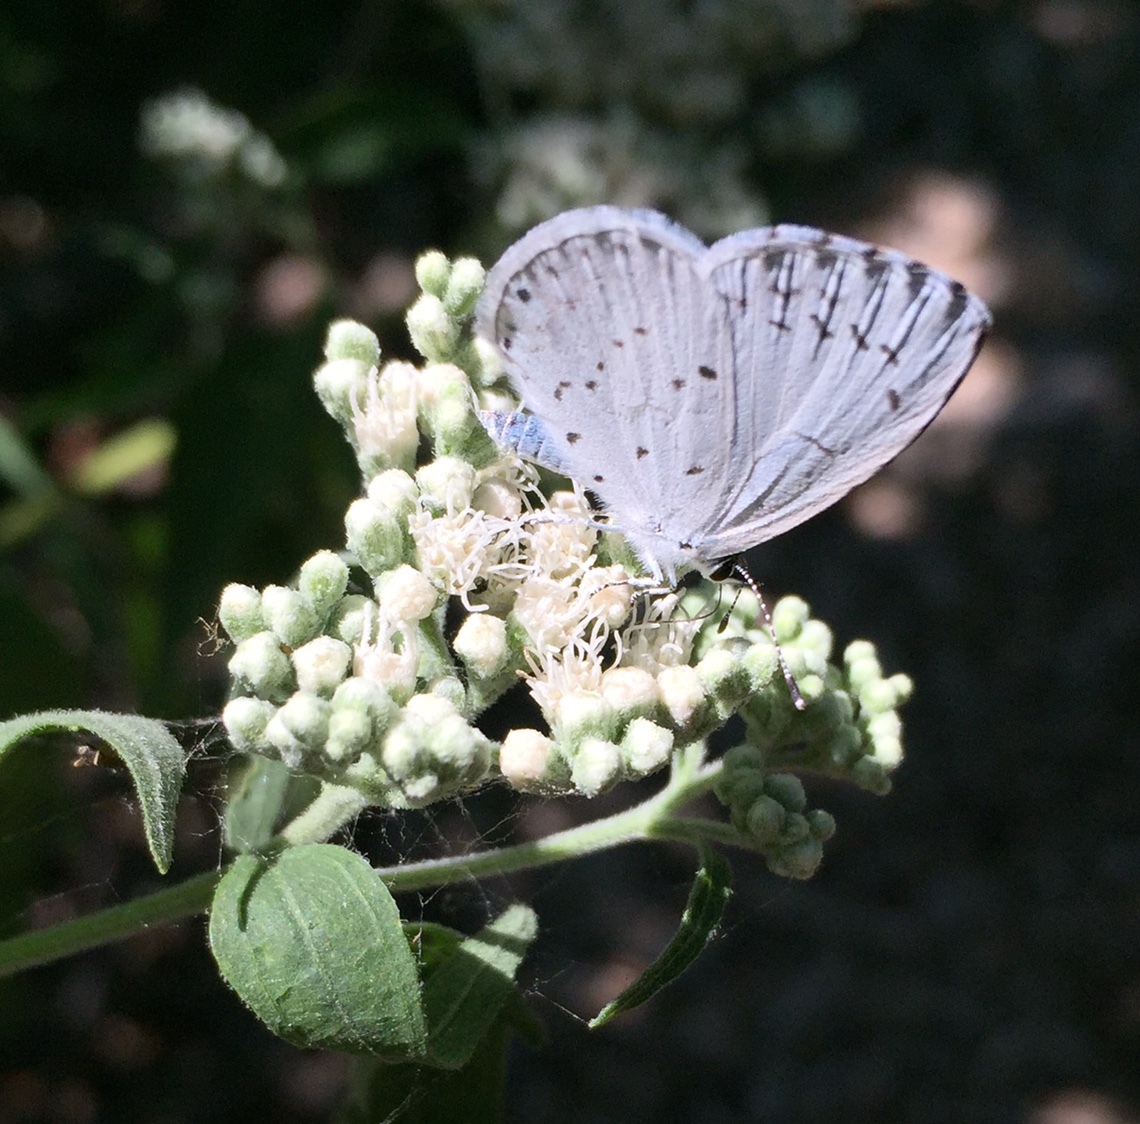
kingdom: Animalia
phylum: Arthropoda
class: Insecta
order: Lepidoptera
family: Lycaenidae
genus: Cyaniris
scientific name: Cyaniris neglecta
